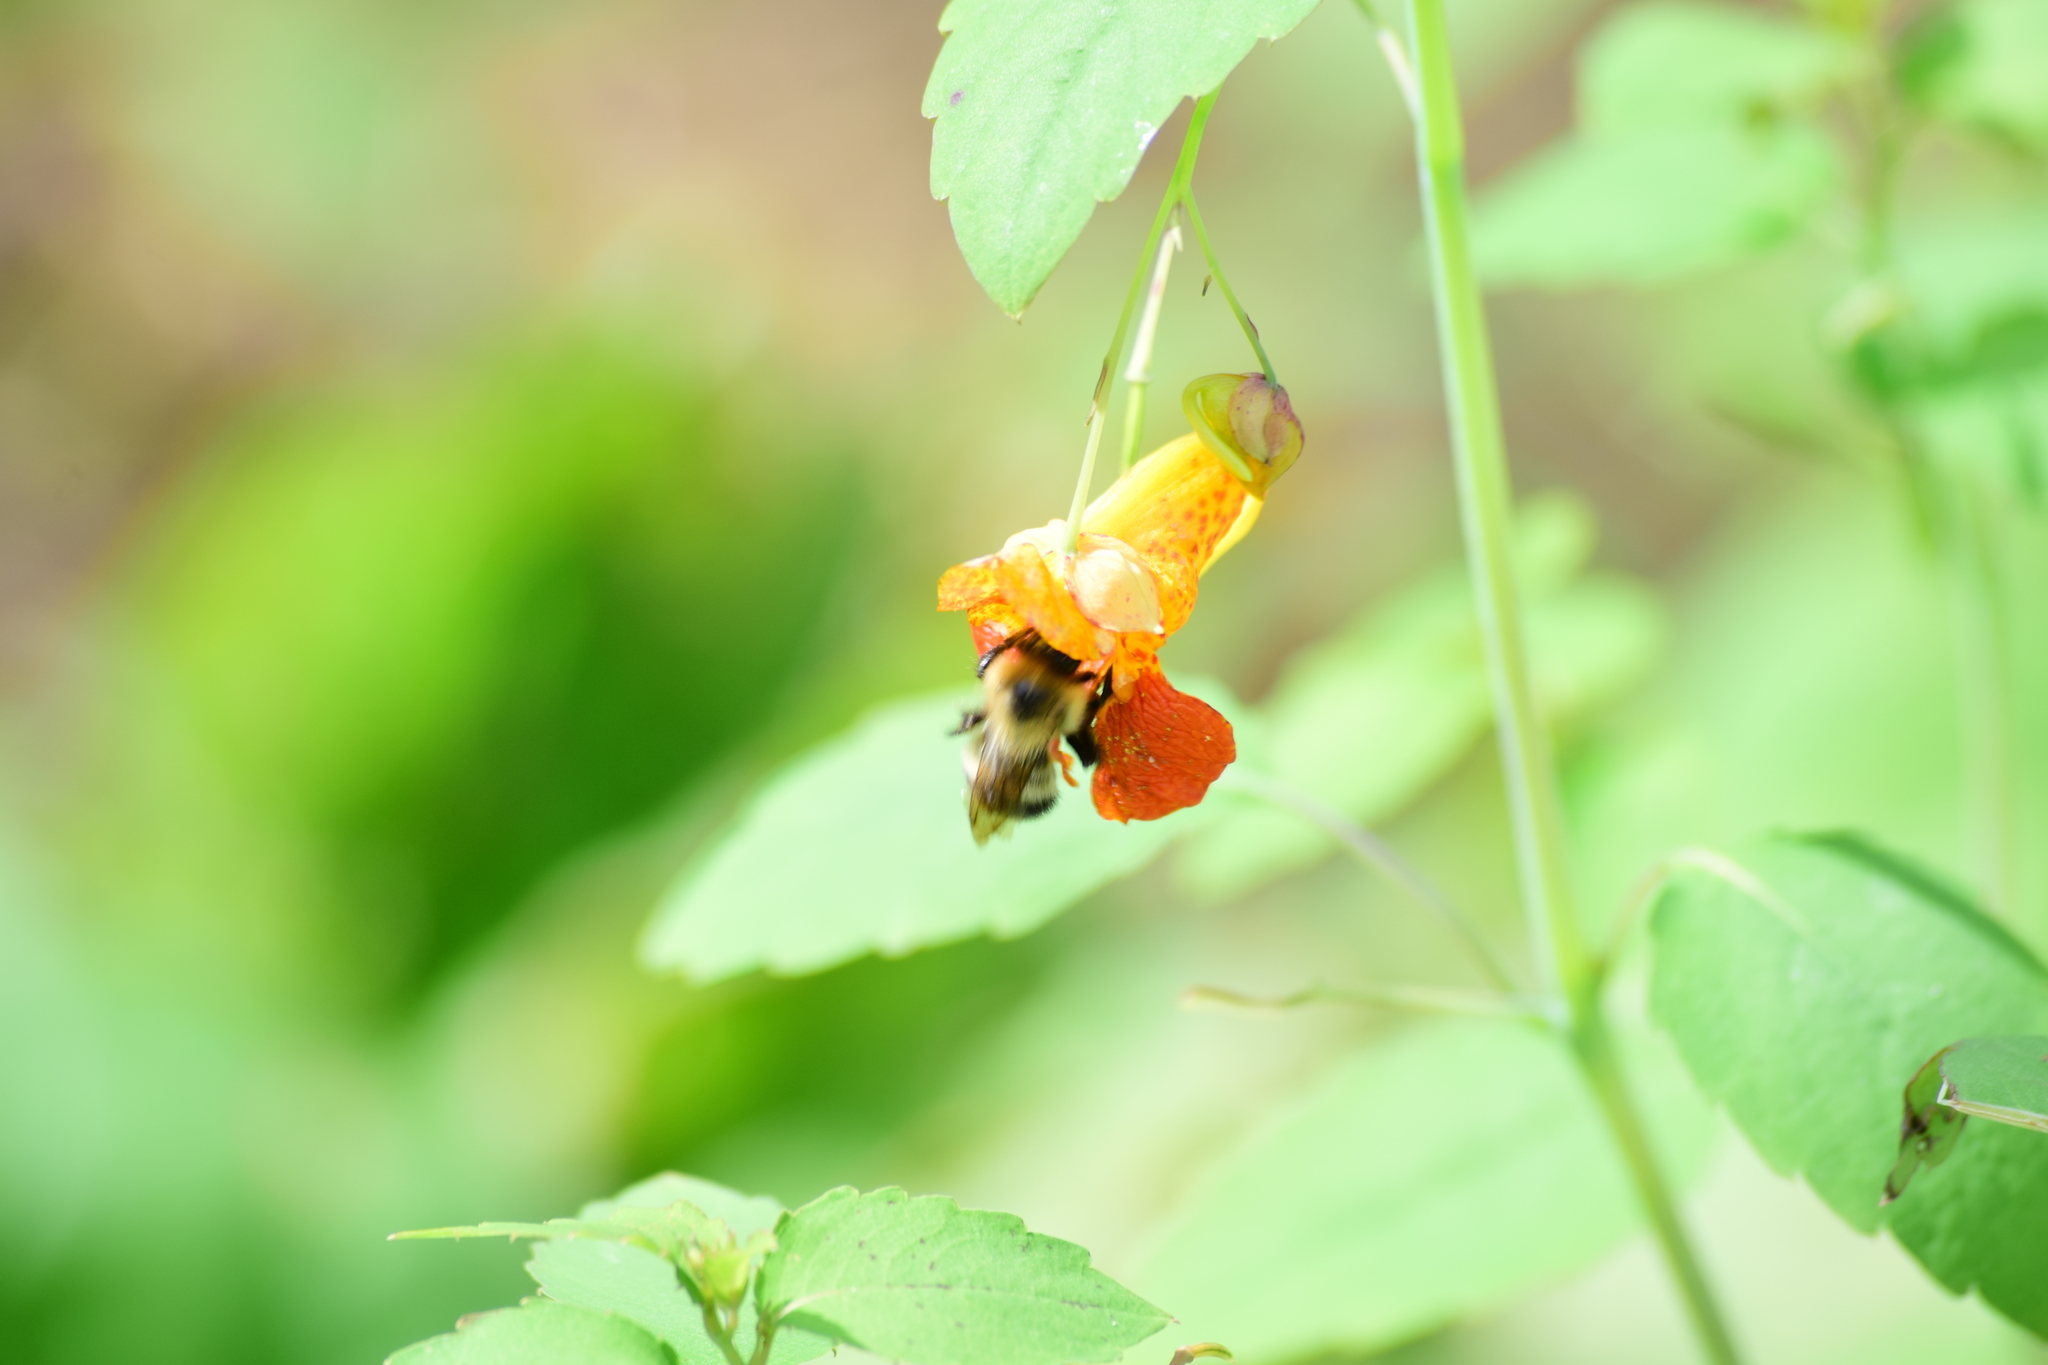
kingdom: Animalia
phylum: Arthropoda
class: Insecta
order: Hymenoptera
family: Apidae
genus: Pyrobombus
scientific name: Pyrobombus
